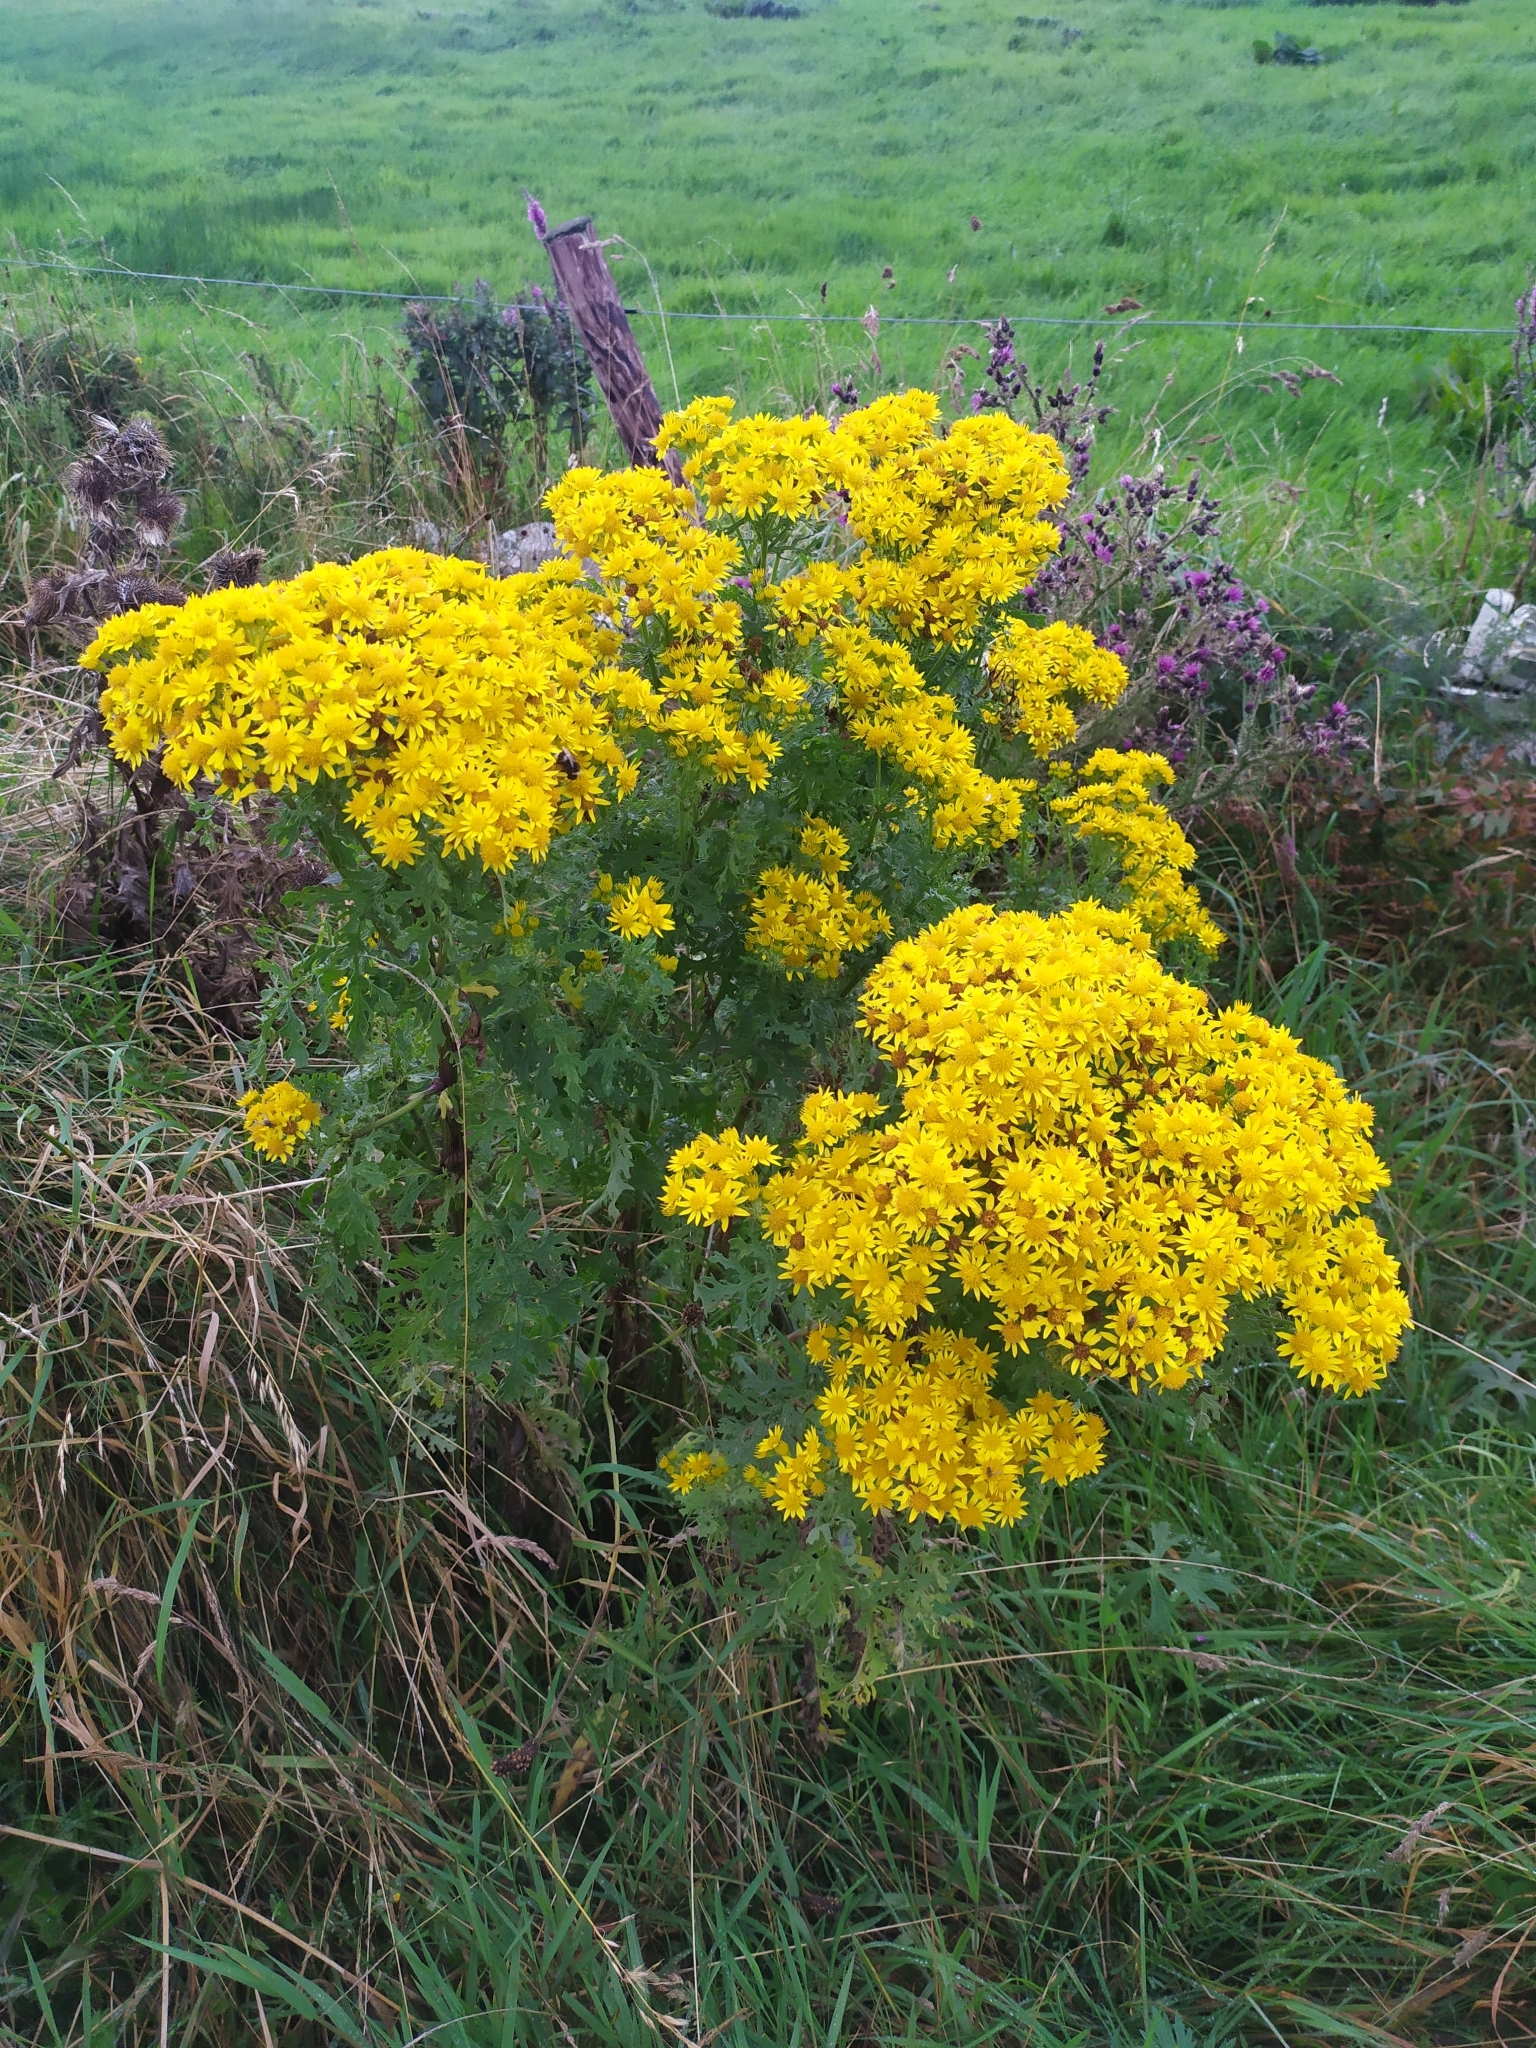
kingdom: Plantae
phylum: Tracheophyta
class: Magnoliopsida
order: Asterales
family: Asteraceae
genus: Jacobaea
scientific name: Jacobaea vulgaris
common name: Stinking willie
